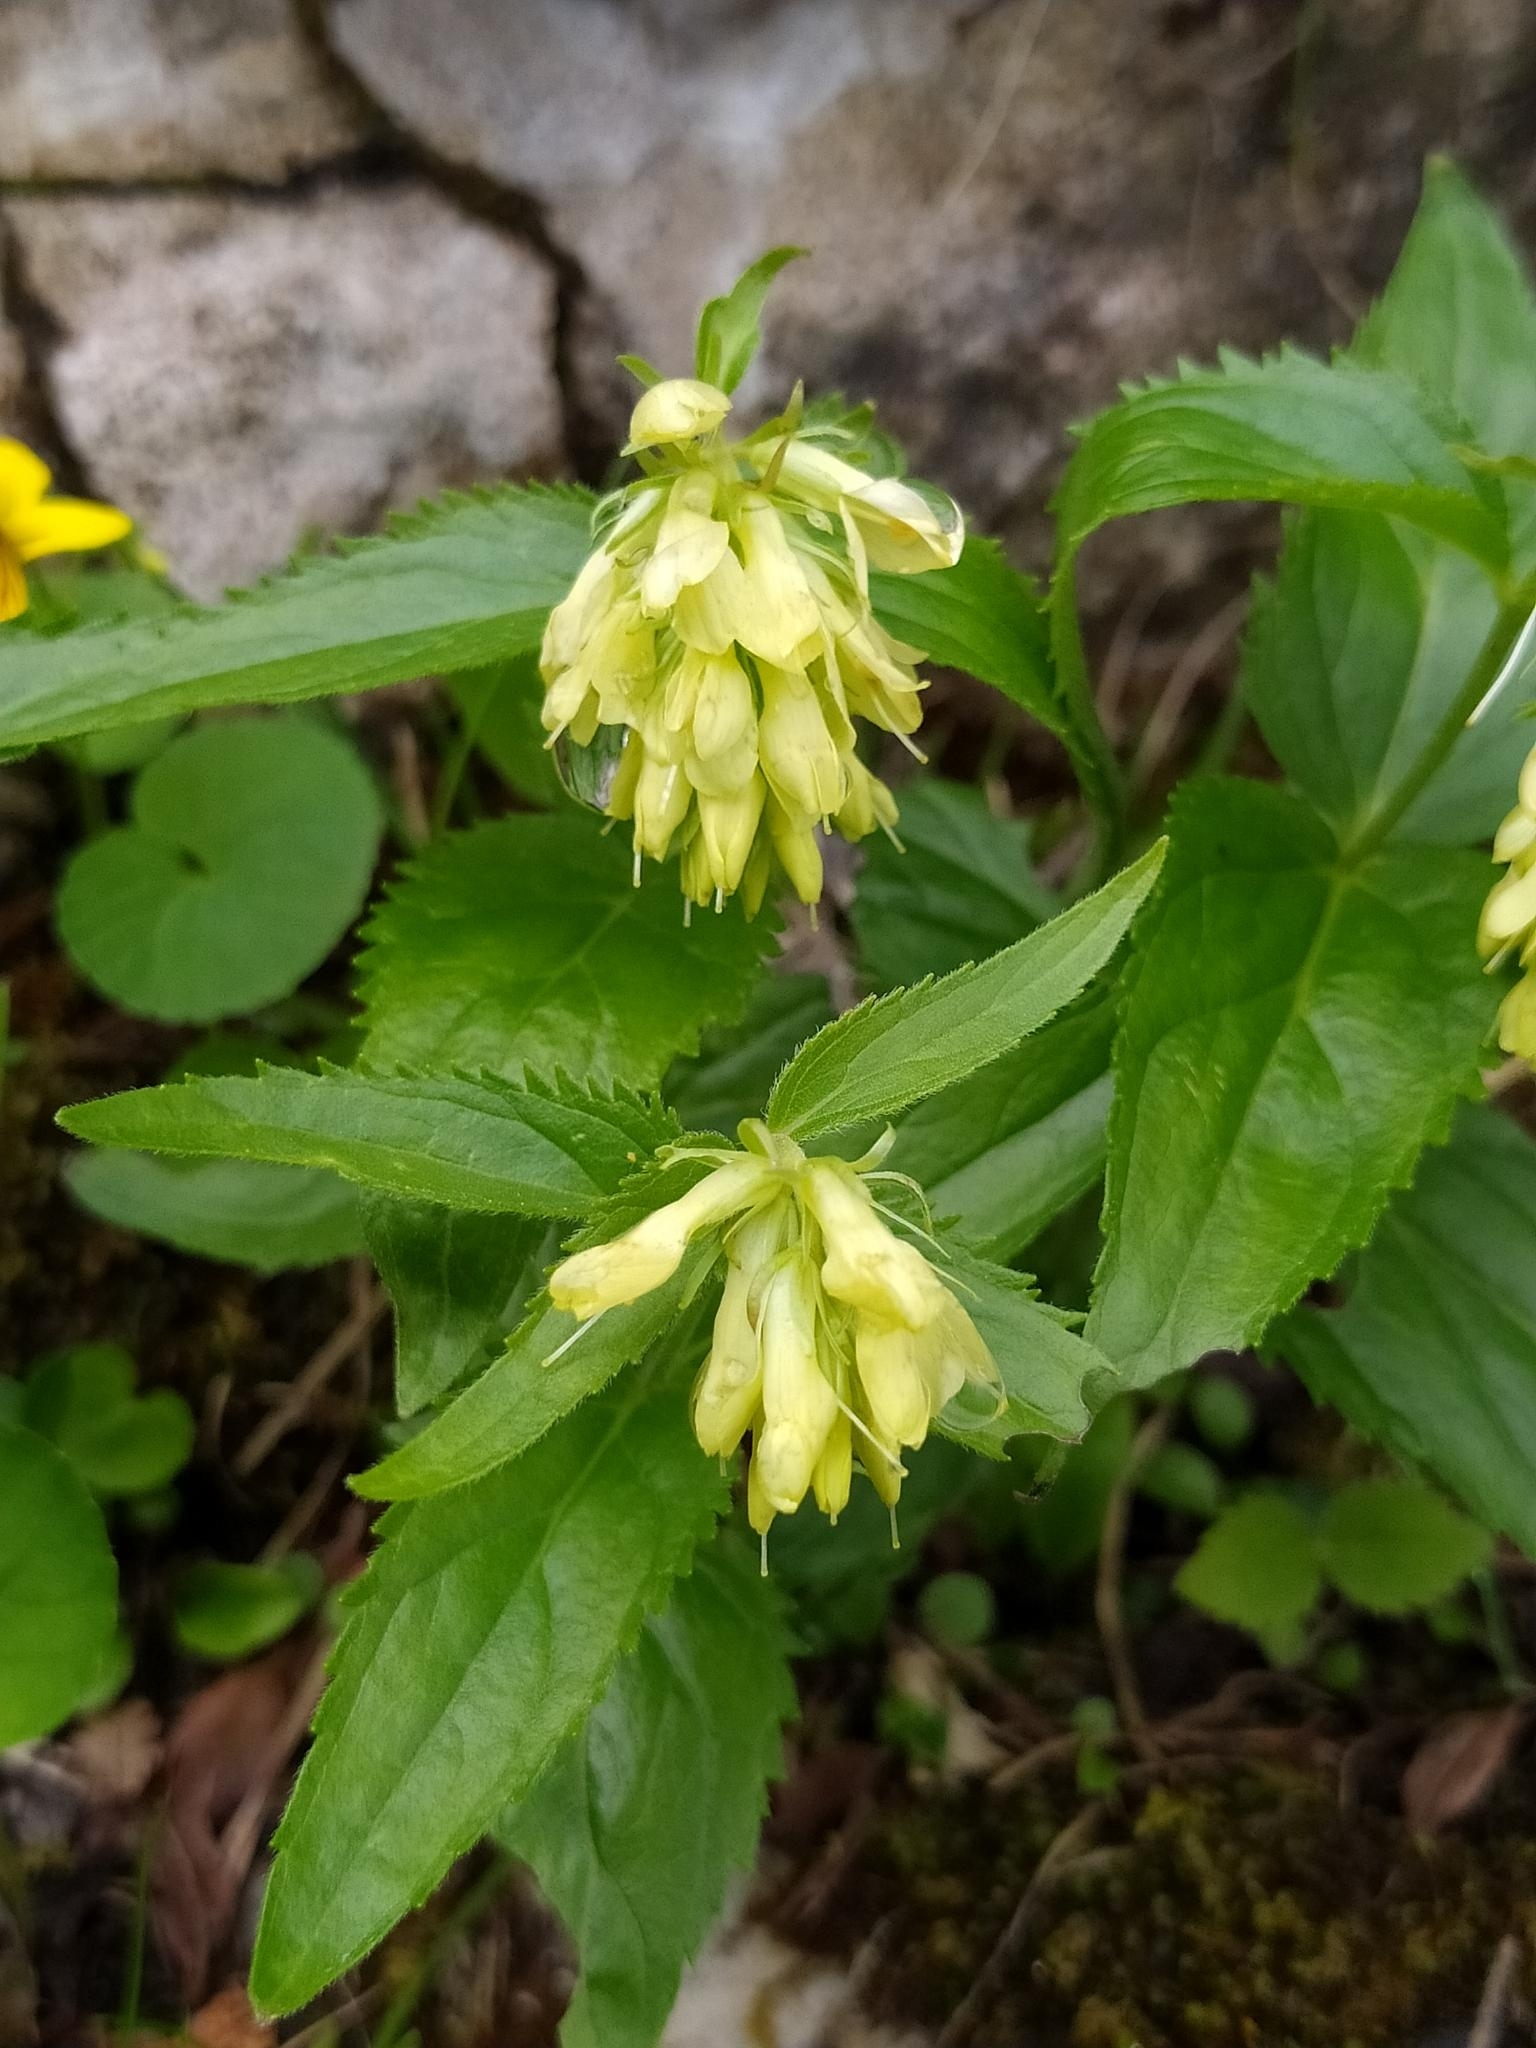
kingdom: Plantae
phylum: Tracheophyta
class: Magnoliopsida
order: Lamiales
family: Plantaginaceae
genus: Paederota
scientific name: Paederota lutea
